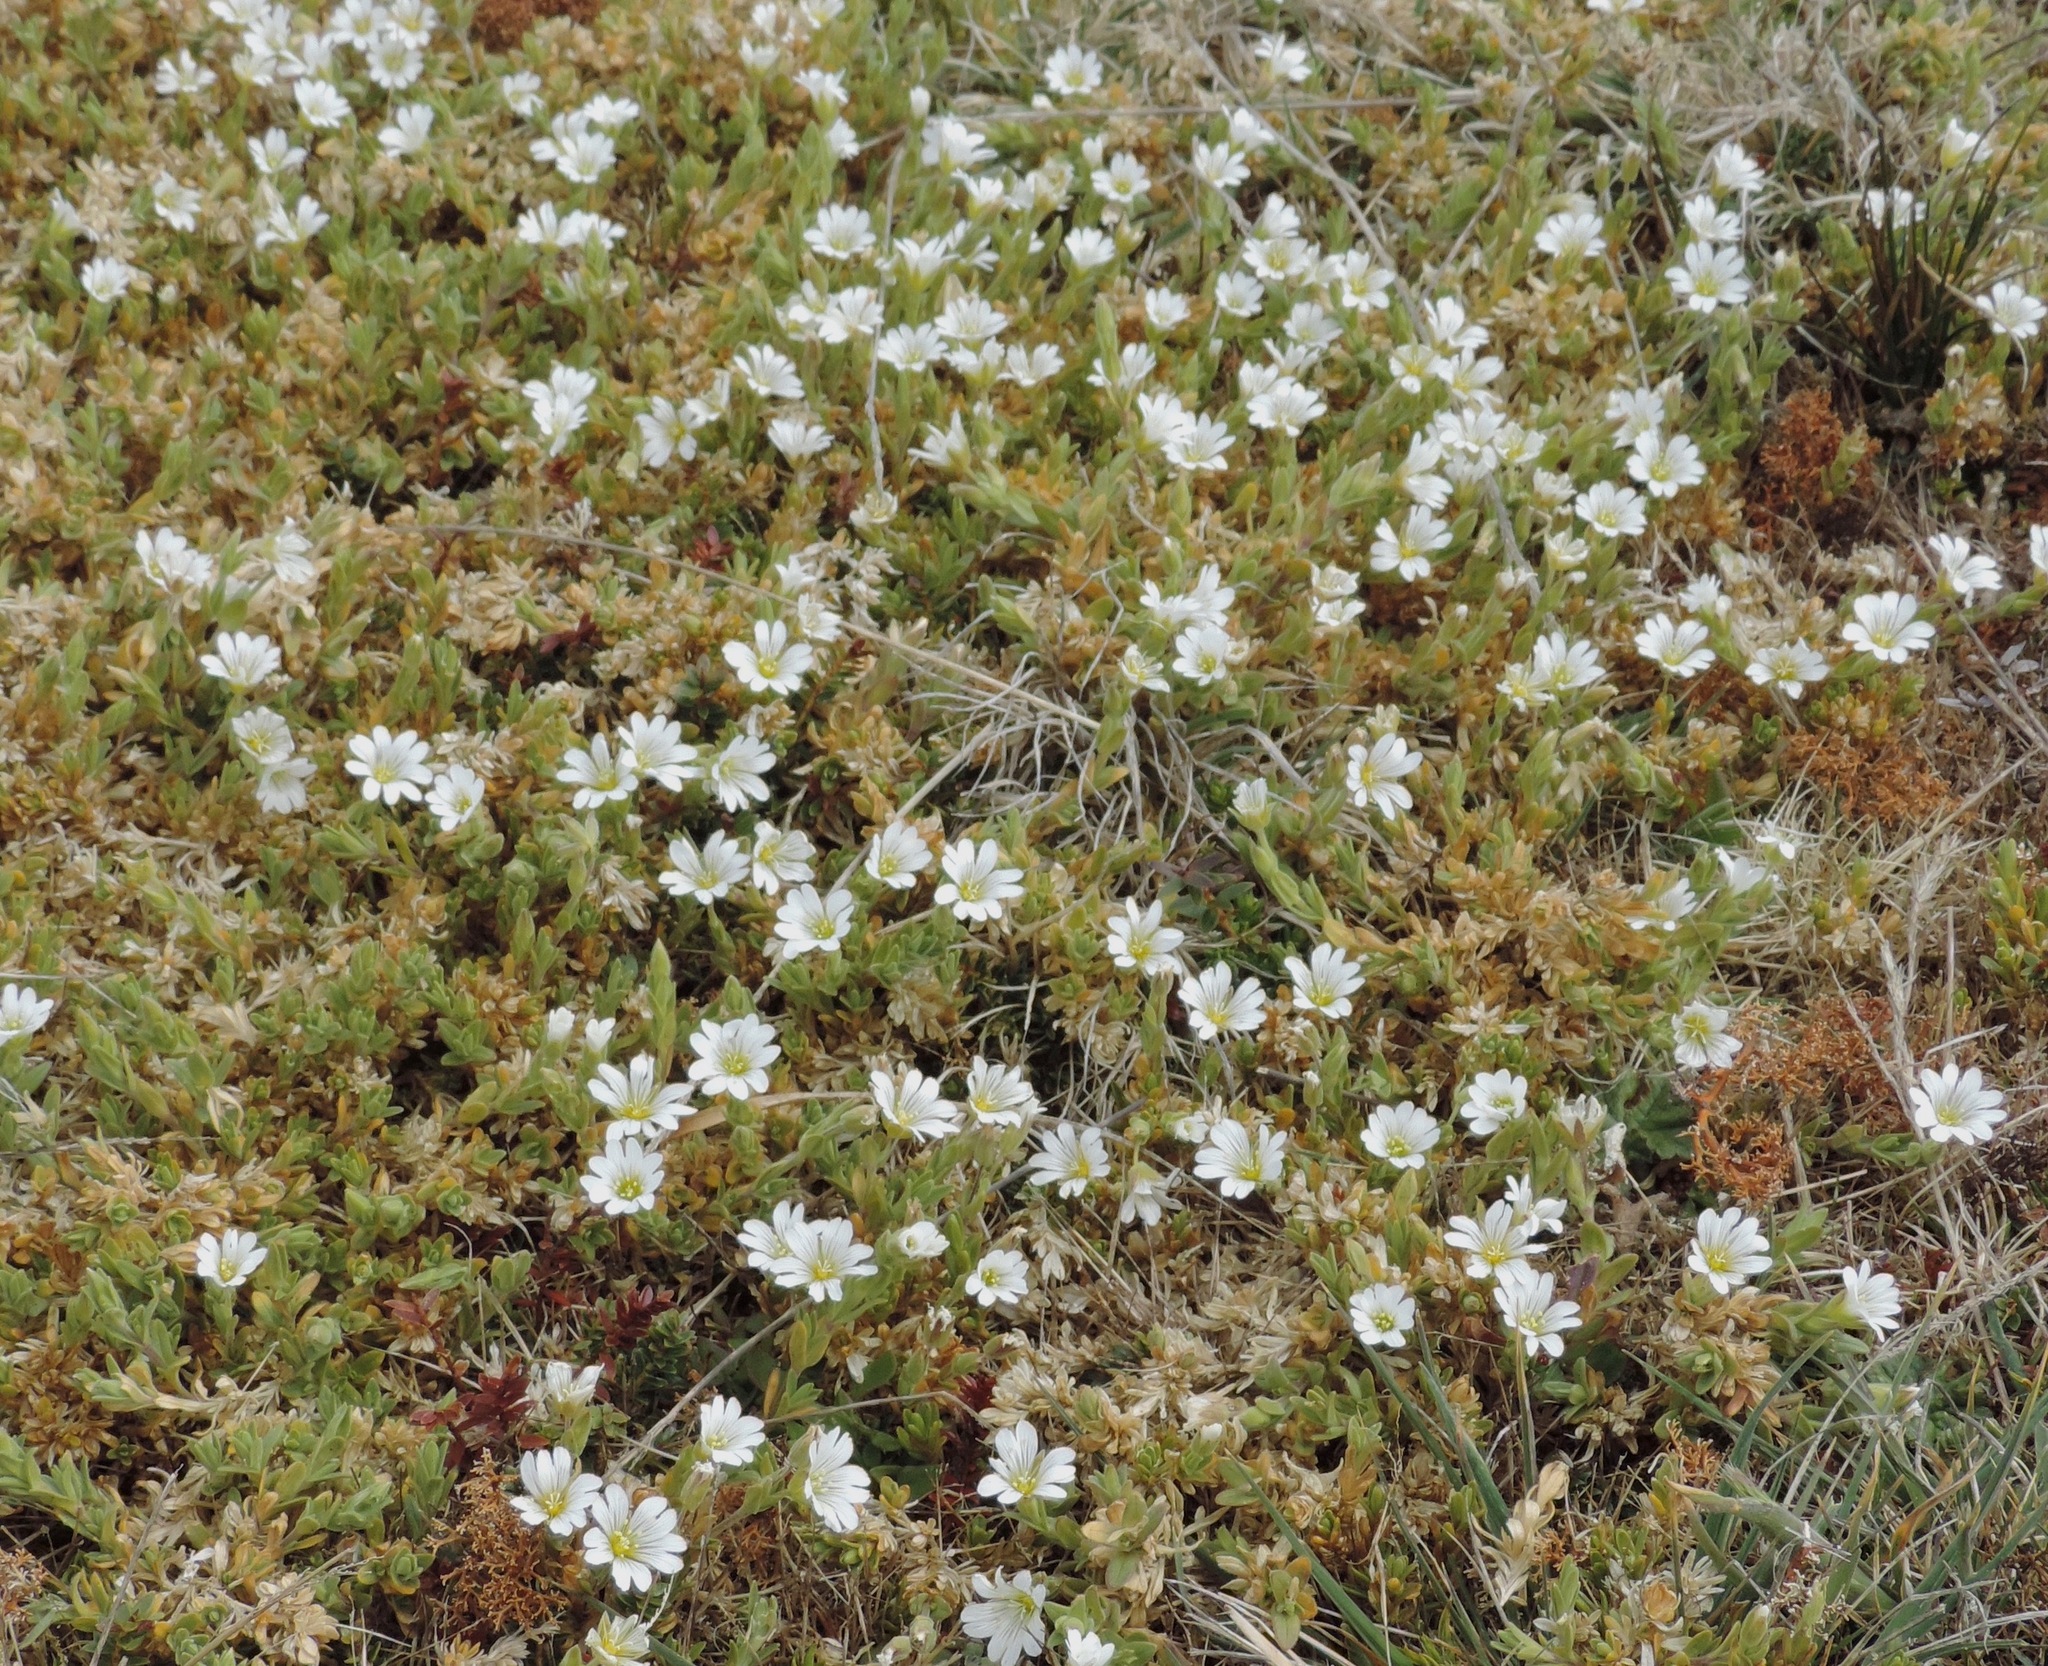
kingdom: Plantae
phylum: Tracheophyta
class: Magnoliopsida
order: Caryophyllales
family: Caryophyllaceae
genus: Cerastium
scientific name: Cerastium arvense
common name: Field mouse-ear
